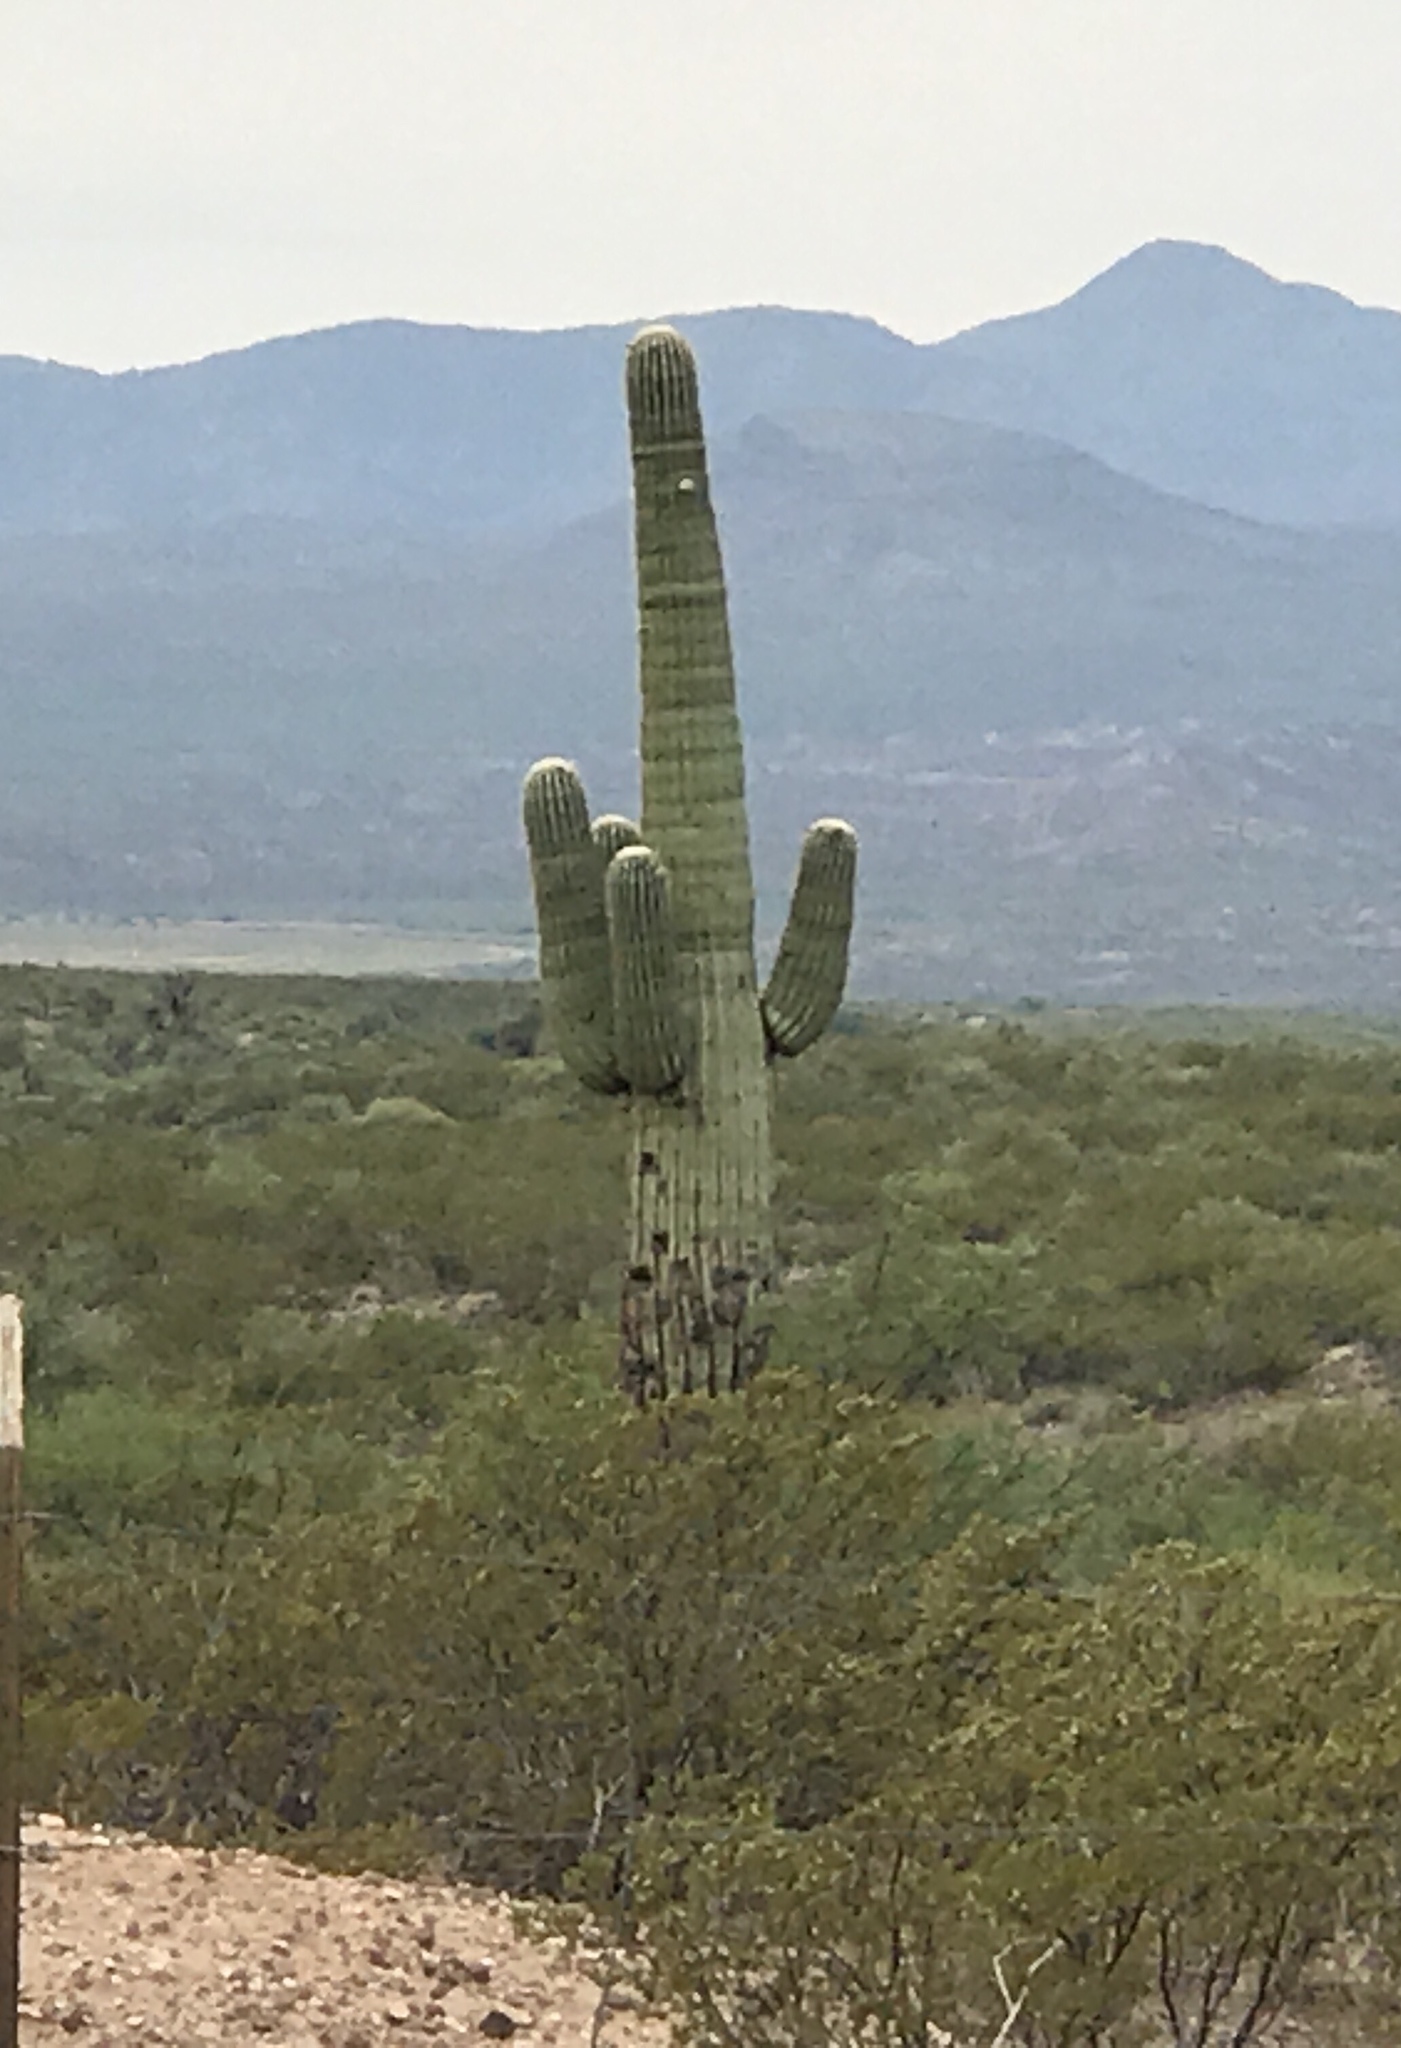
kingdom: Plantae
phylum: Tracheophyta
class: Magnoliopsida
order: Caryophyllales
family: Cactaceae
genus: Carnegiea
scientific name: Carnegiea gigantea
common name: Saguaro
